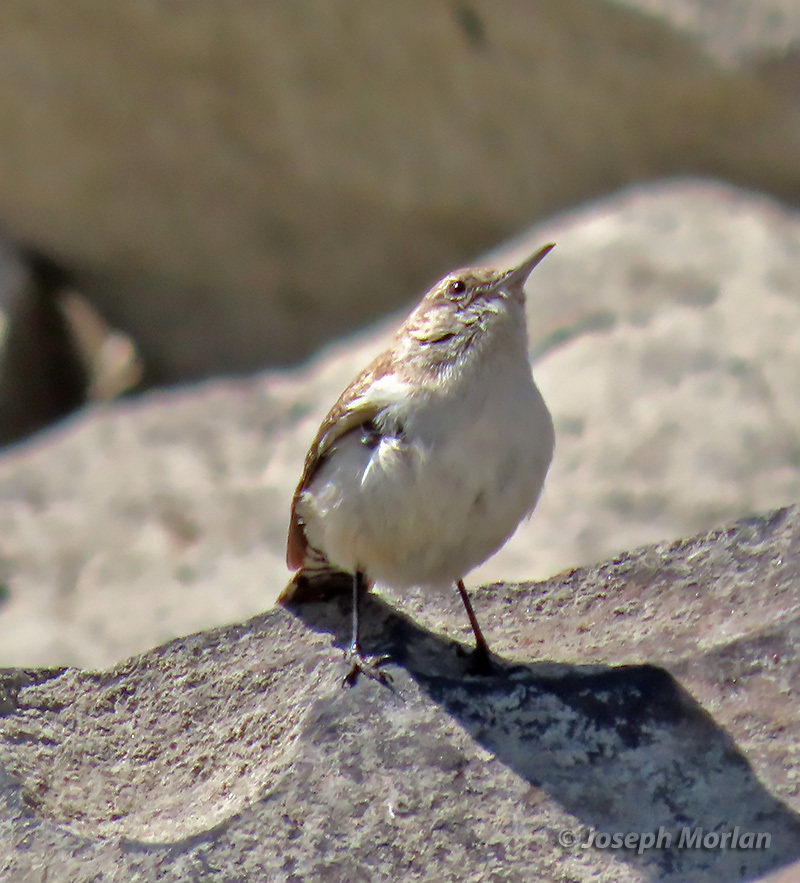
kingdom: Animalia
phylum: Chordata
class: Aves
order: Passeriformes
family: Troglodytidae
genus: Salpinctes
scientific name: Salpinctes obsoletus
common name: Rock wren
